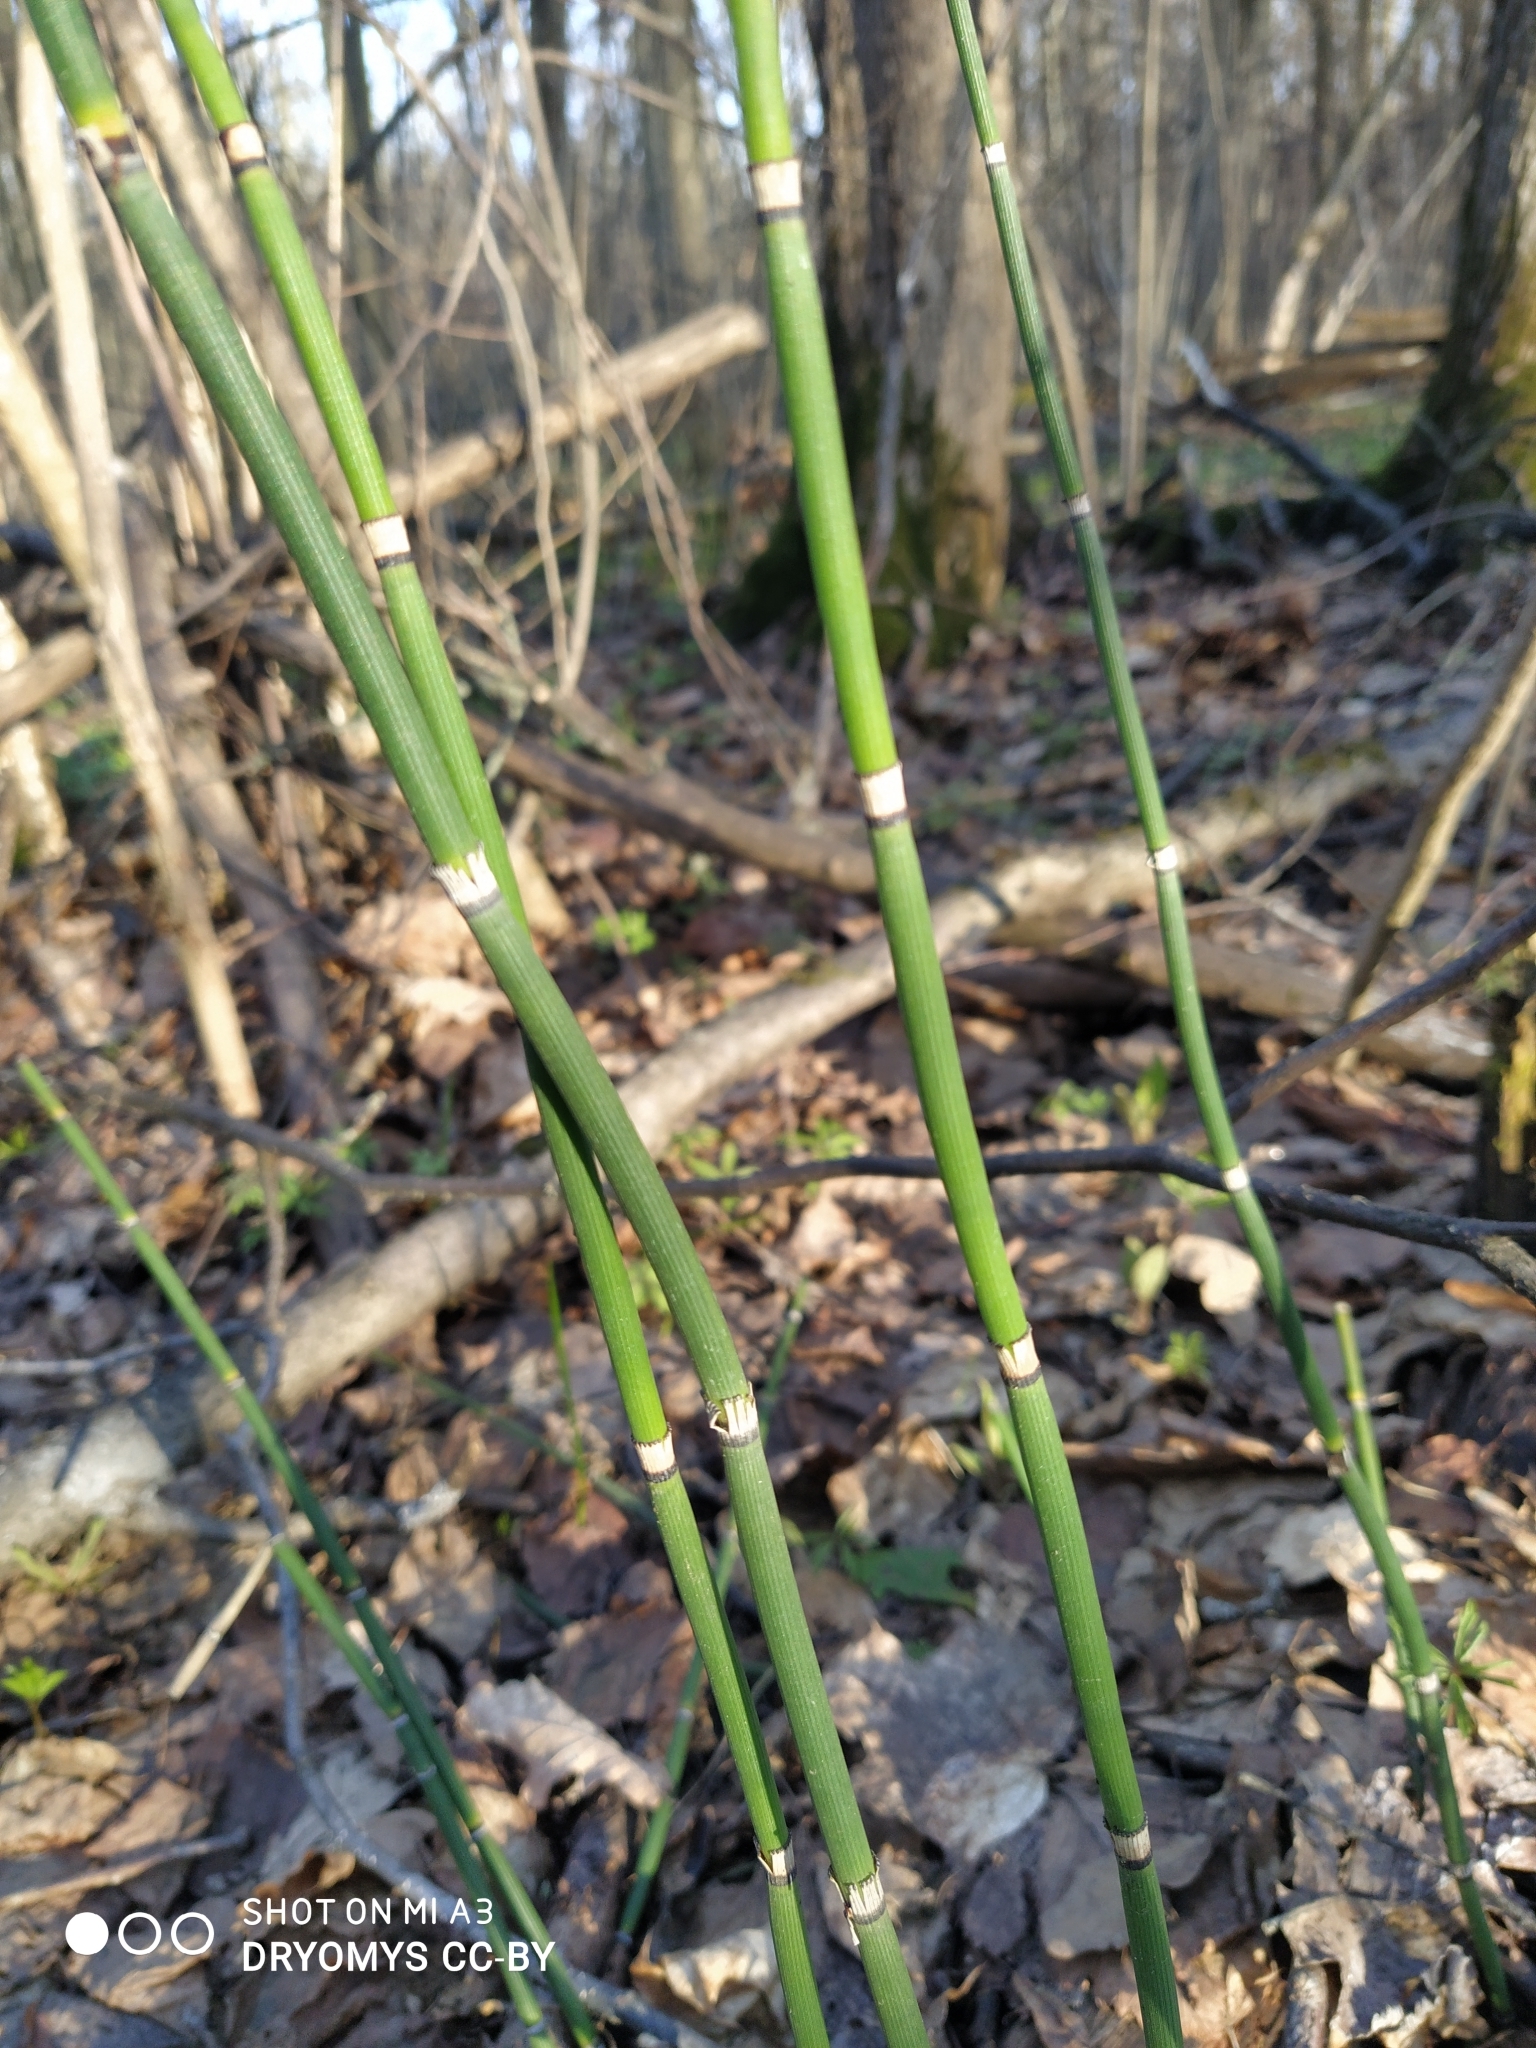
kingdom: Plantae
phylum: Tracheophyta
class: Polypodiopsida
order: Equisetales
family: Equisetaceae
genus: Equisetum
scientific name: Equisetum hyemale
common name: Rough horsetail
